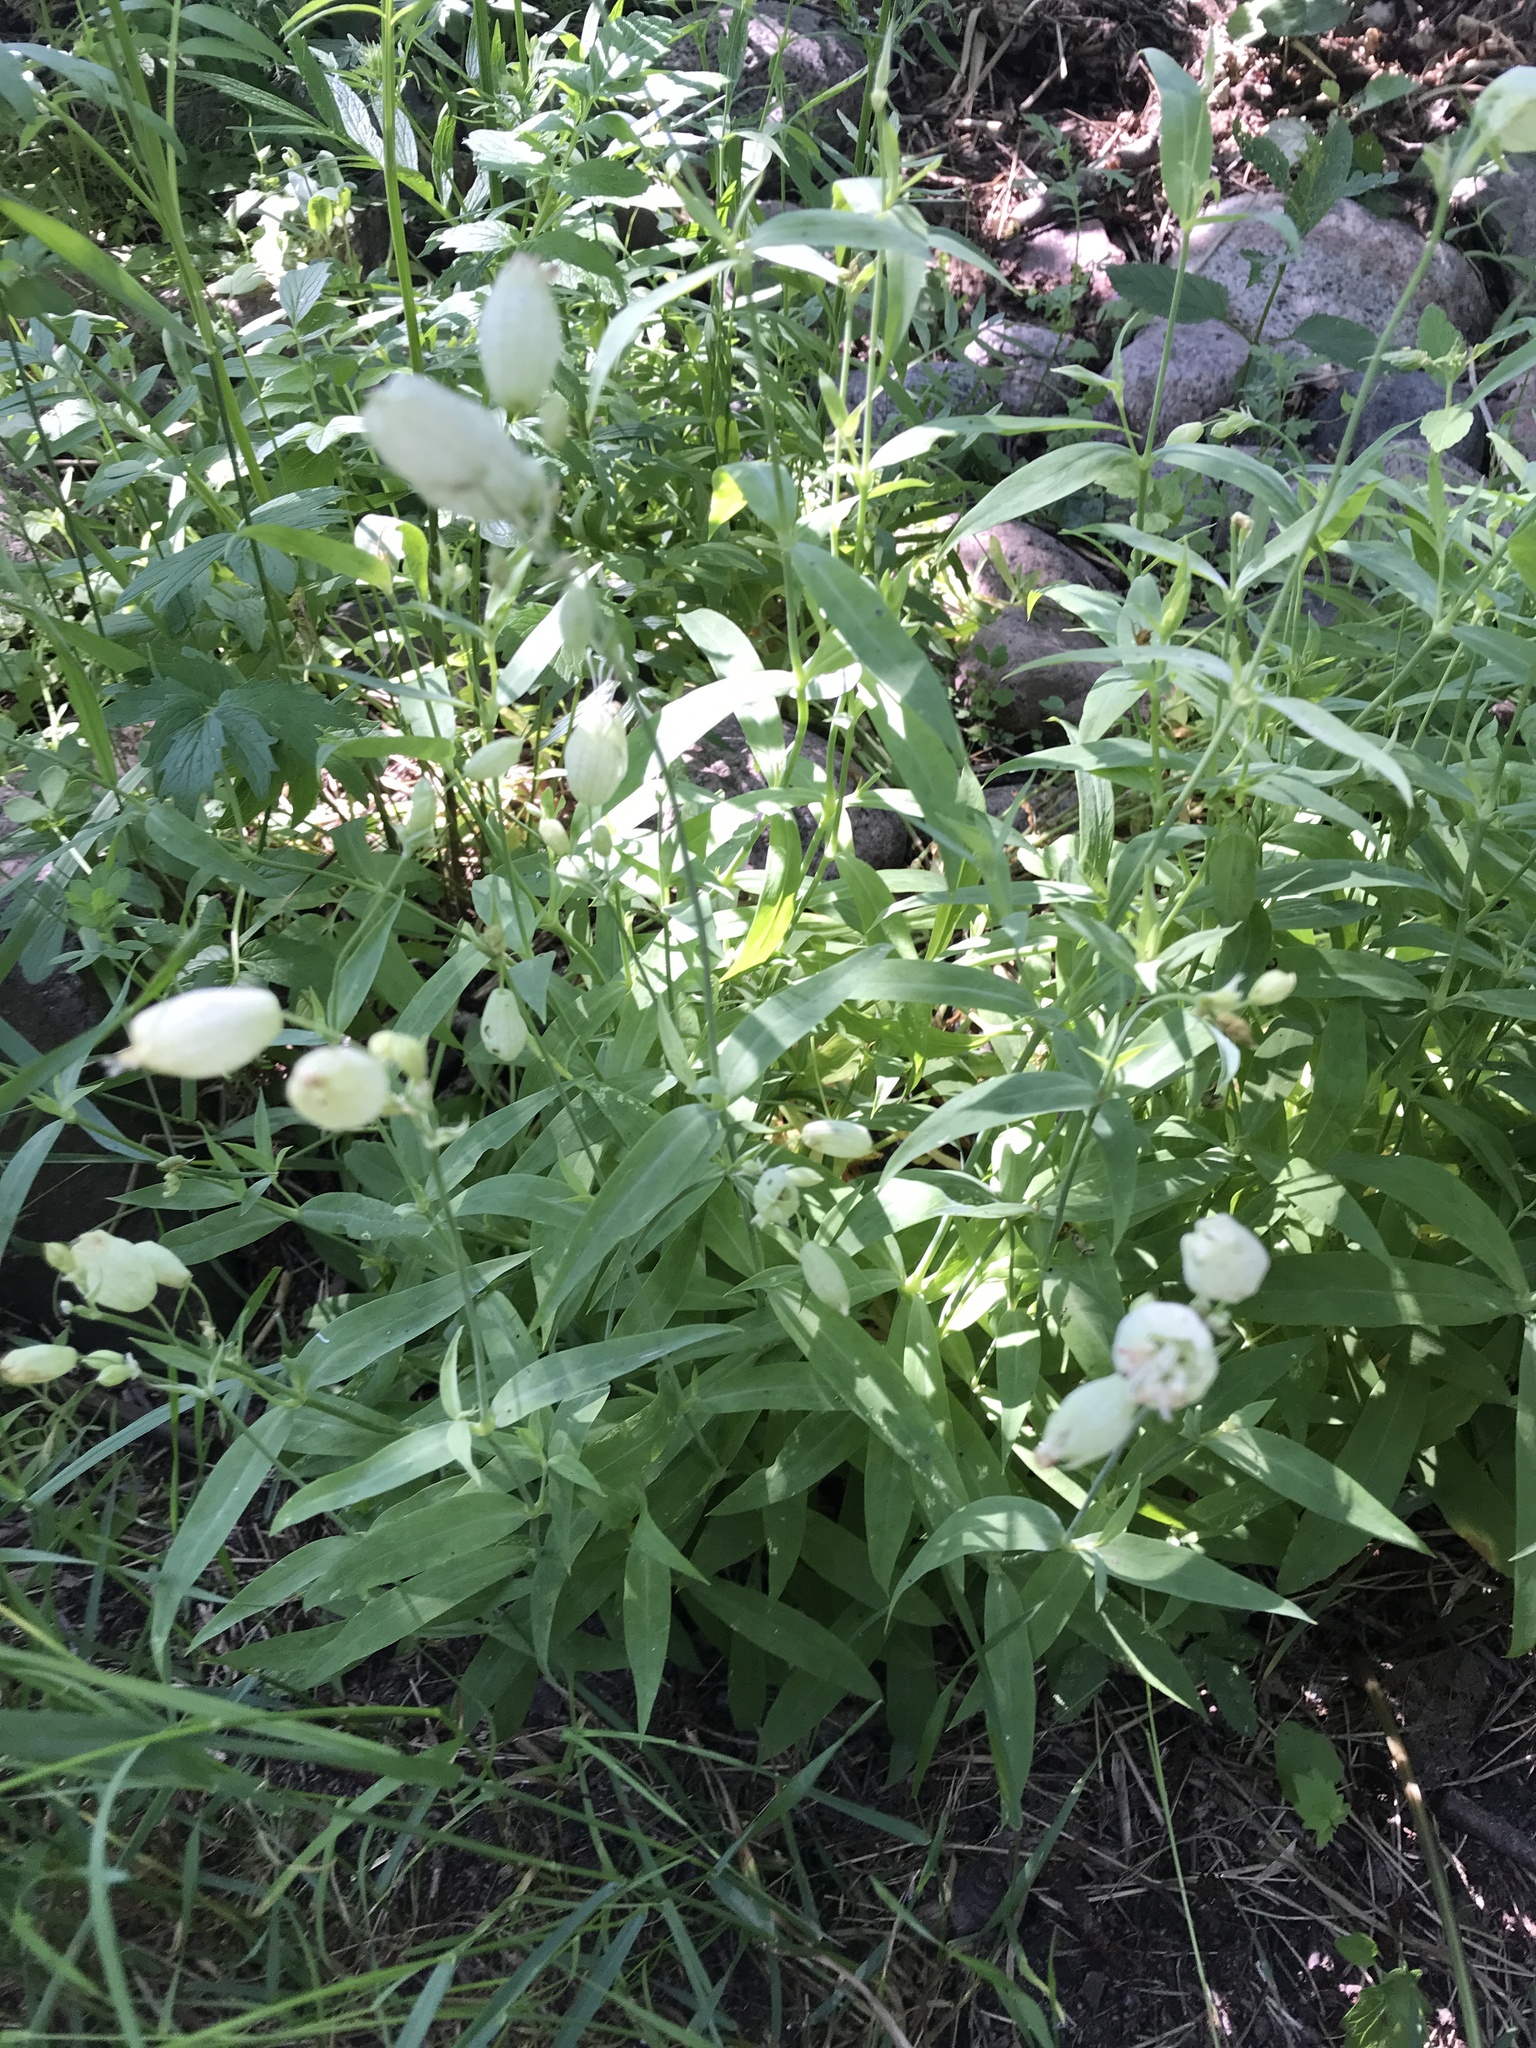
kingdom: Plantae
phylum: Tracheophyta
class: Magnoliopsida
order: Caryophyllales
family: Caryophyllaceae
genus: Silene
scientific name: Silene vulgaris
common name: Bladder campion
